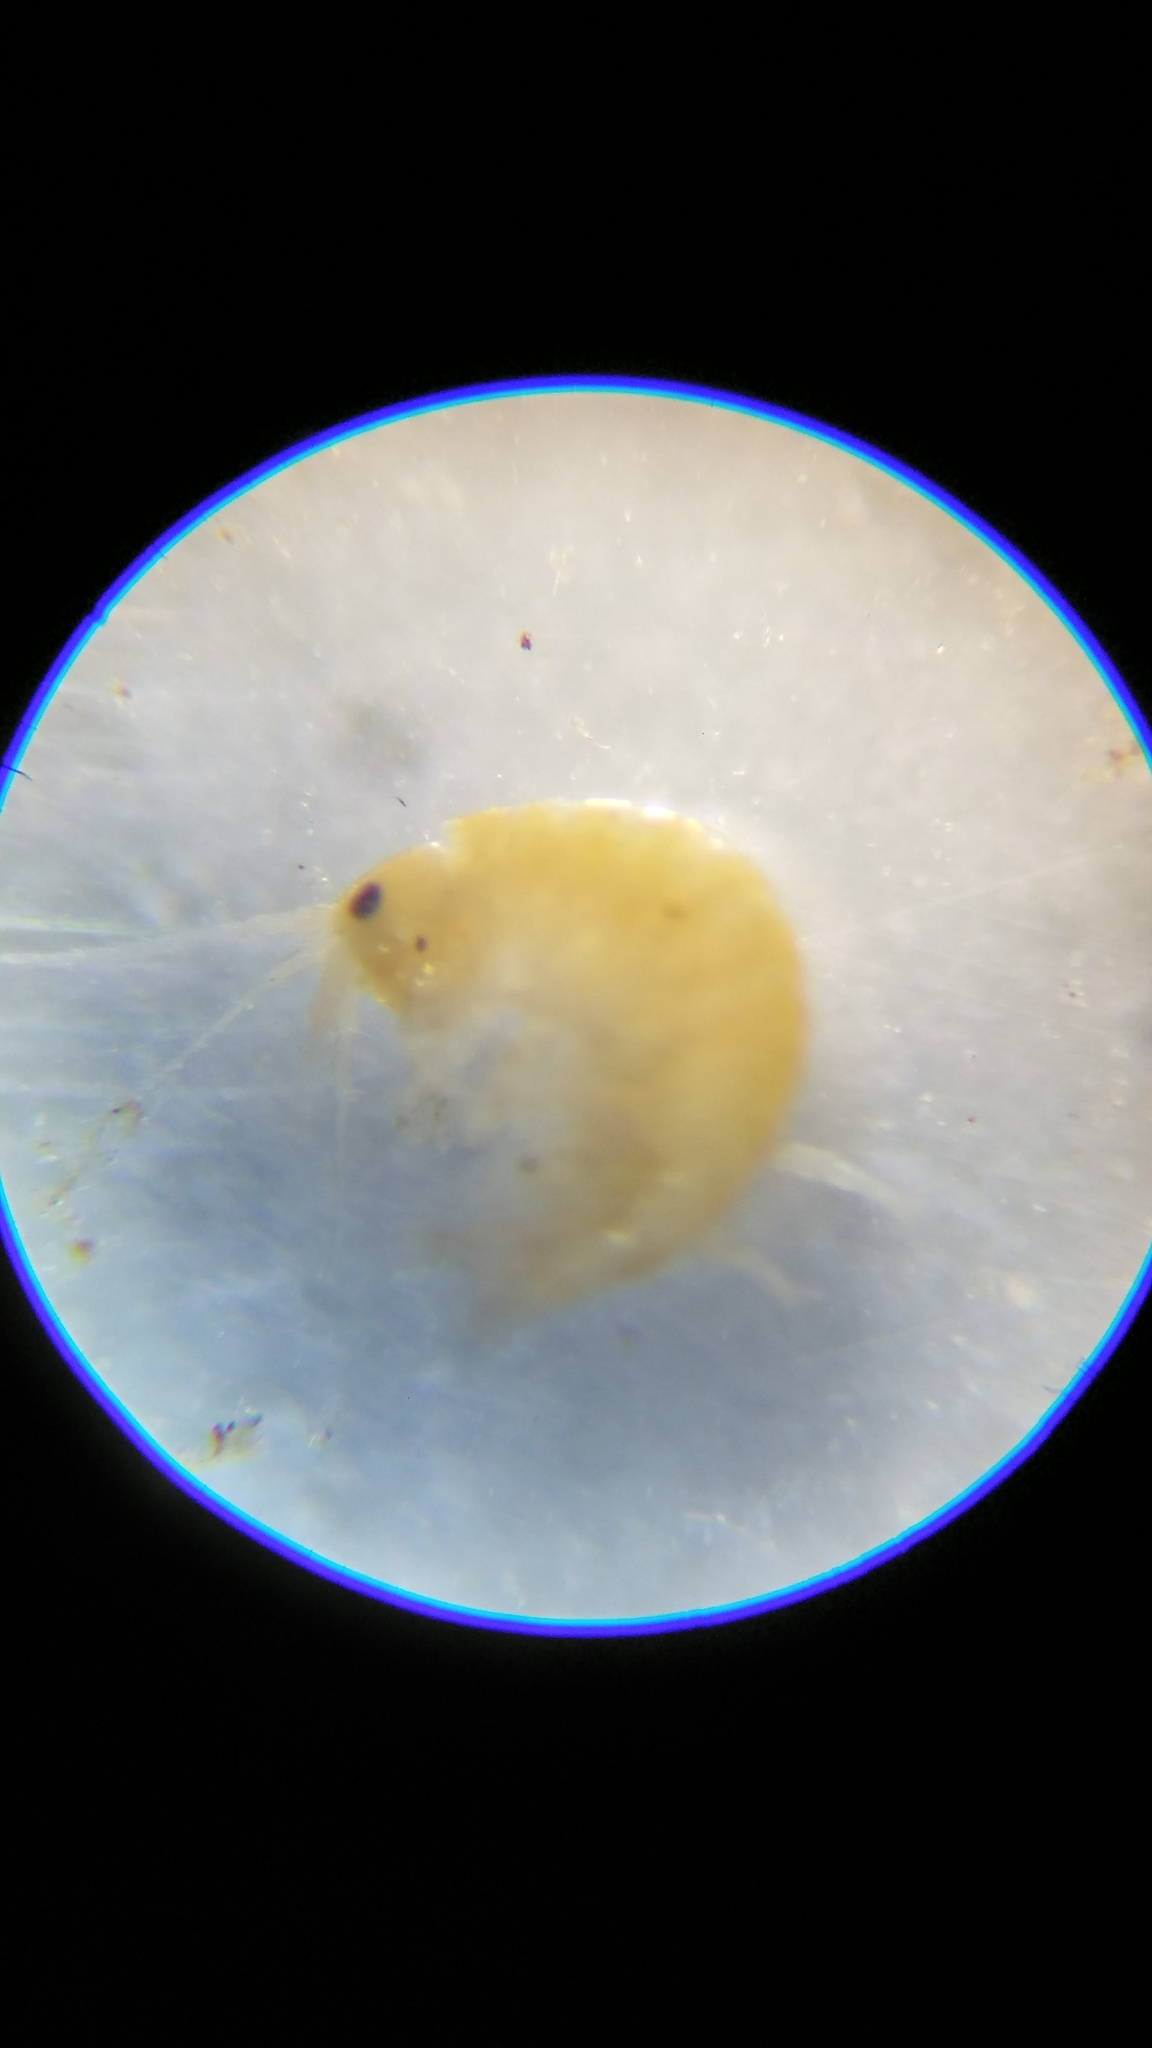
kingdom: Animalia
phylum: Arthropoda
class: Malacostraca
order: Amphipoda
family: Gammaridae
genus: Gammarus
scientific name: Gammarus fasciatus
